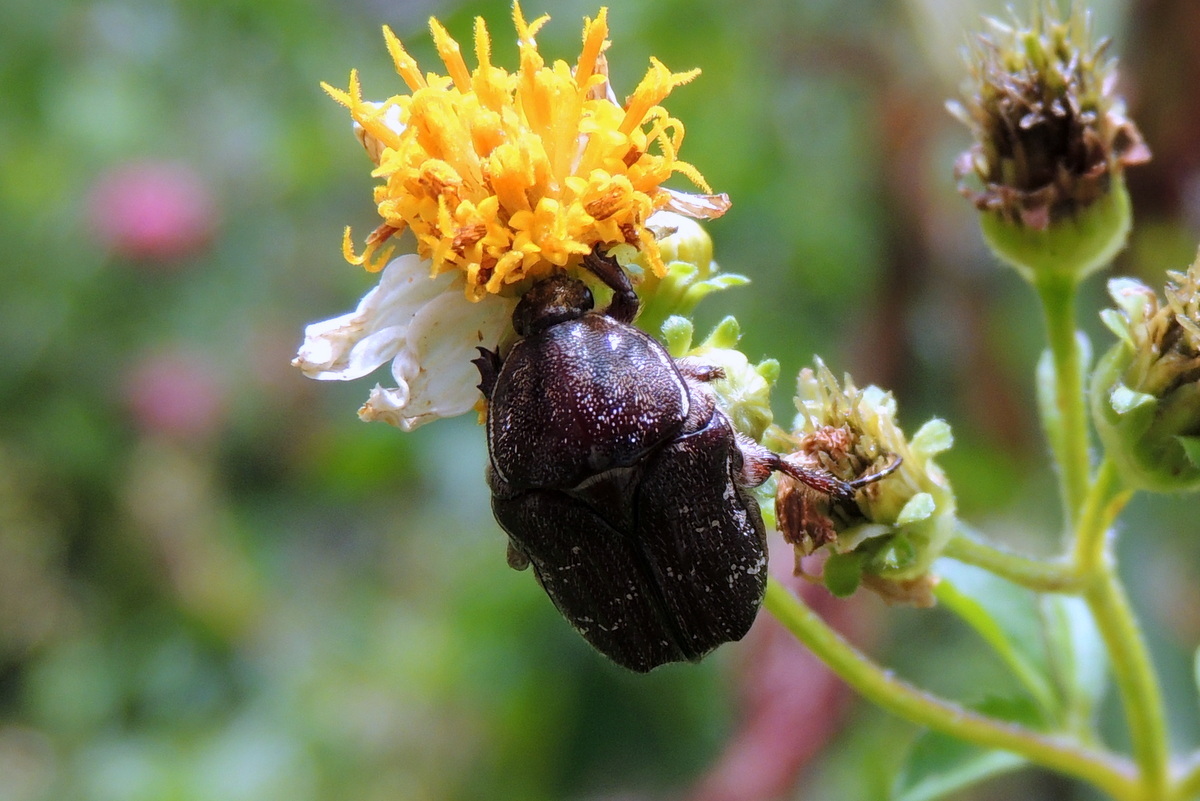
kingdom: Animalia
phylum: Arthropoda
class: Insecta
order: Coleoptera
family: Scarabaeidae
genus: Euphoria
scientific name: Euphoria sepulcralis
